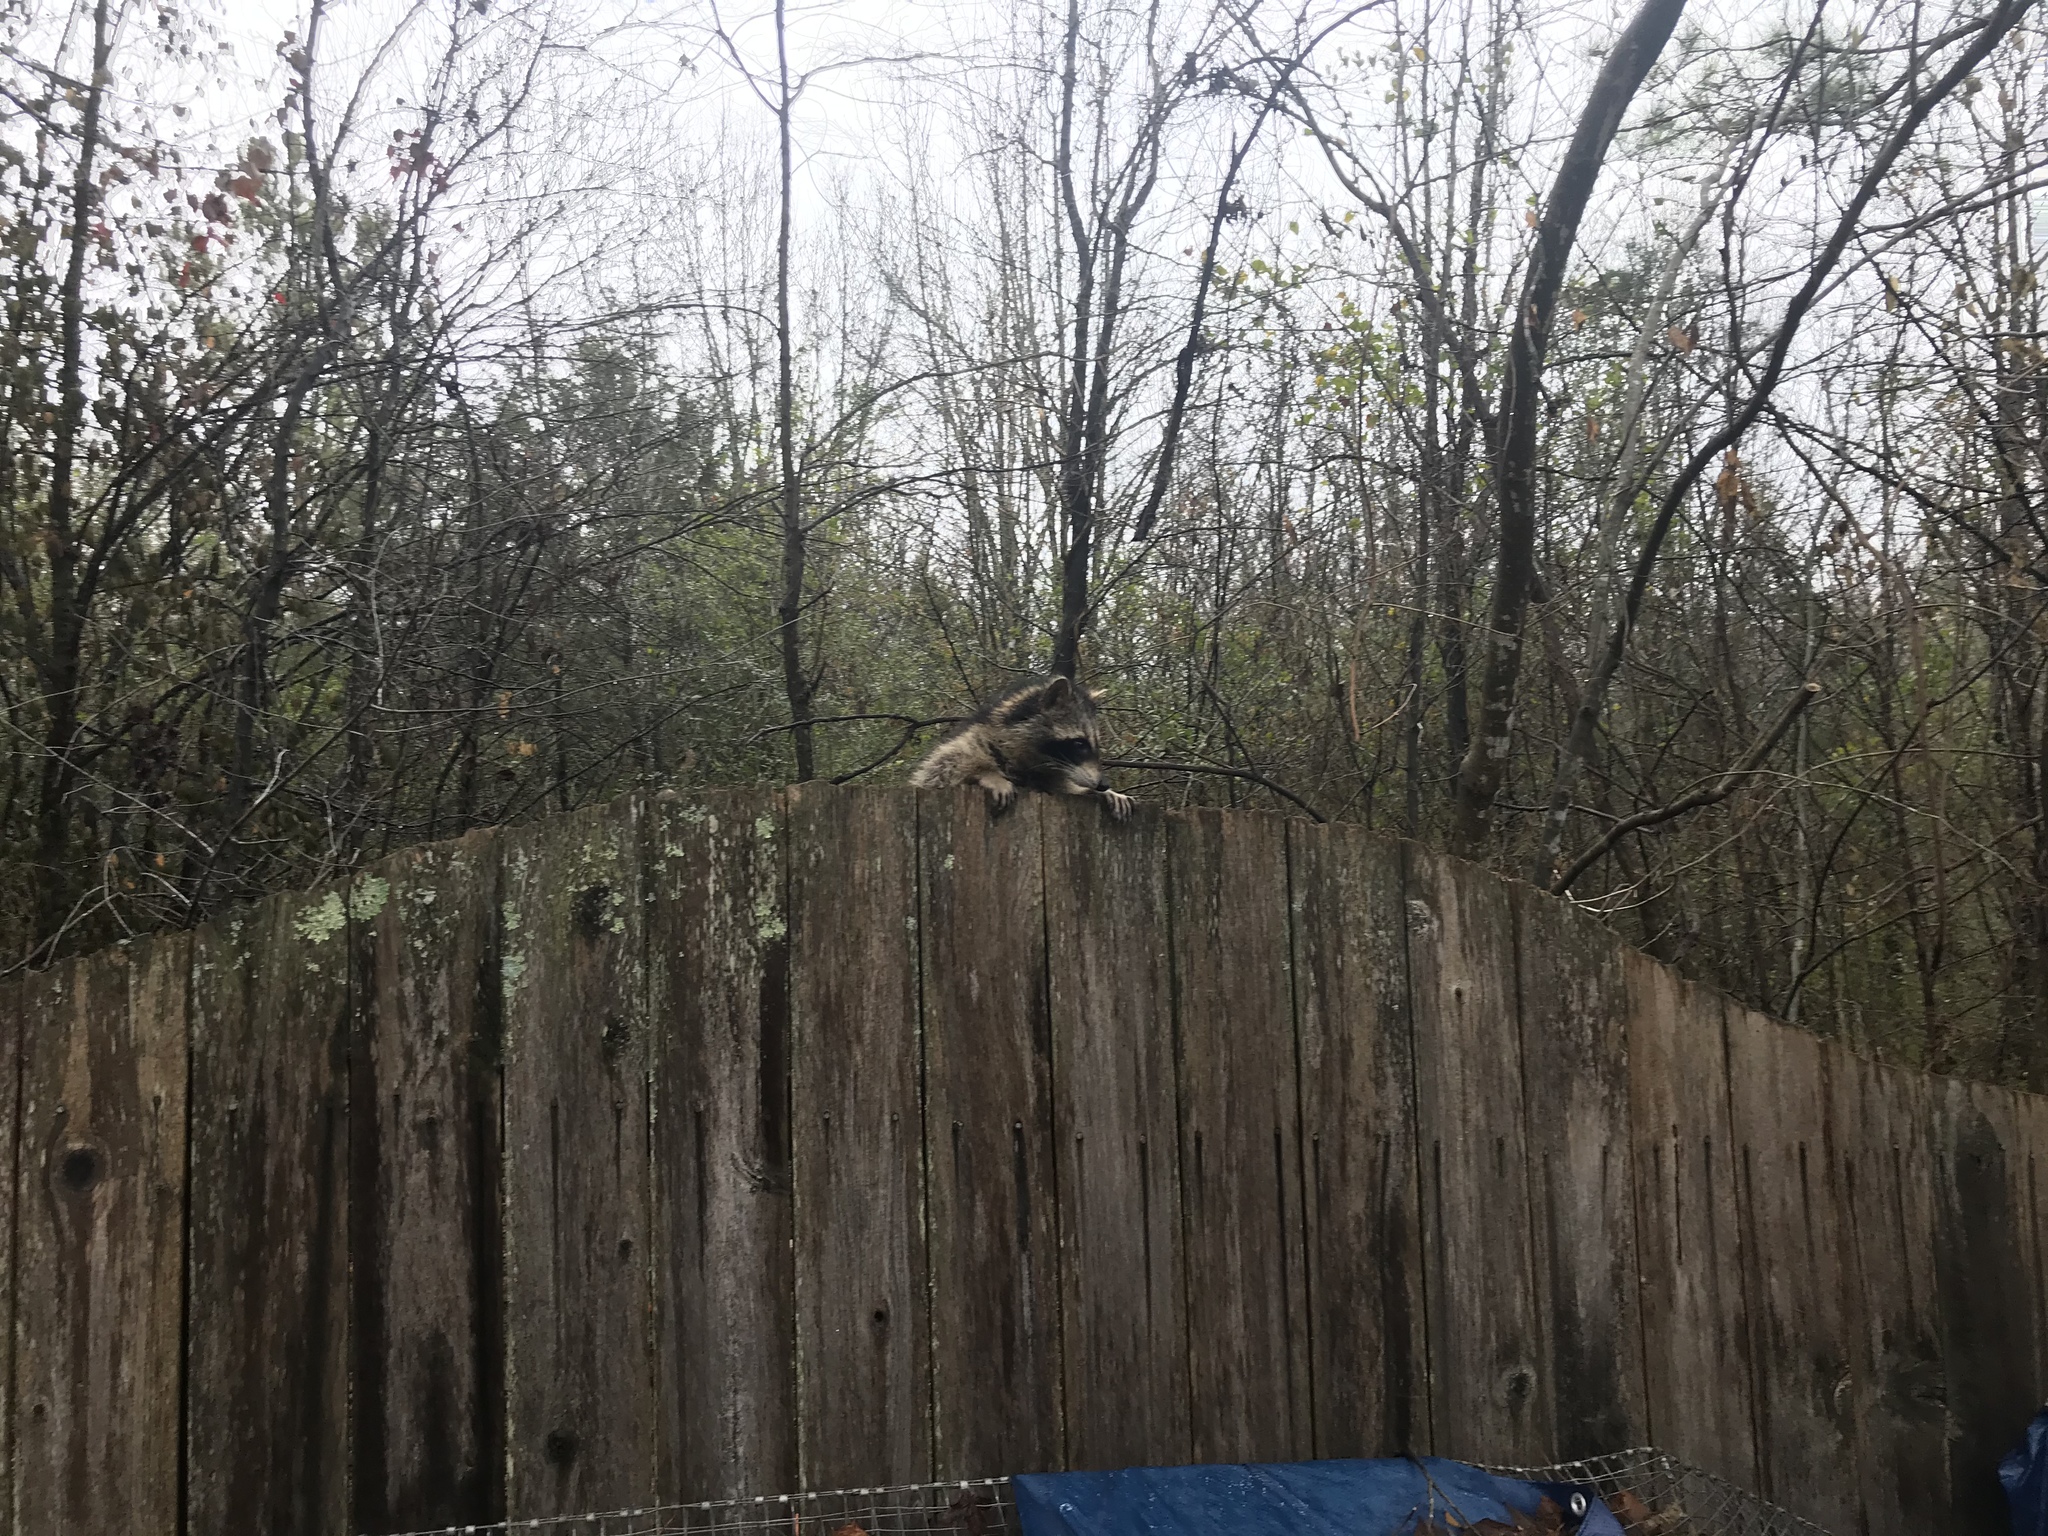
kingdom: Animalia
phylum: Chordata
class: Mammalia
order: Carnivora
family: Procyonidae
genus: Procyon
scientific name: Procyon lotor
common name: Raccoon
